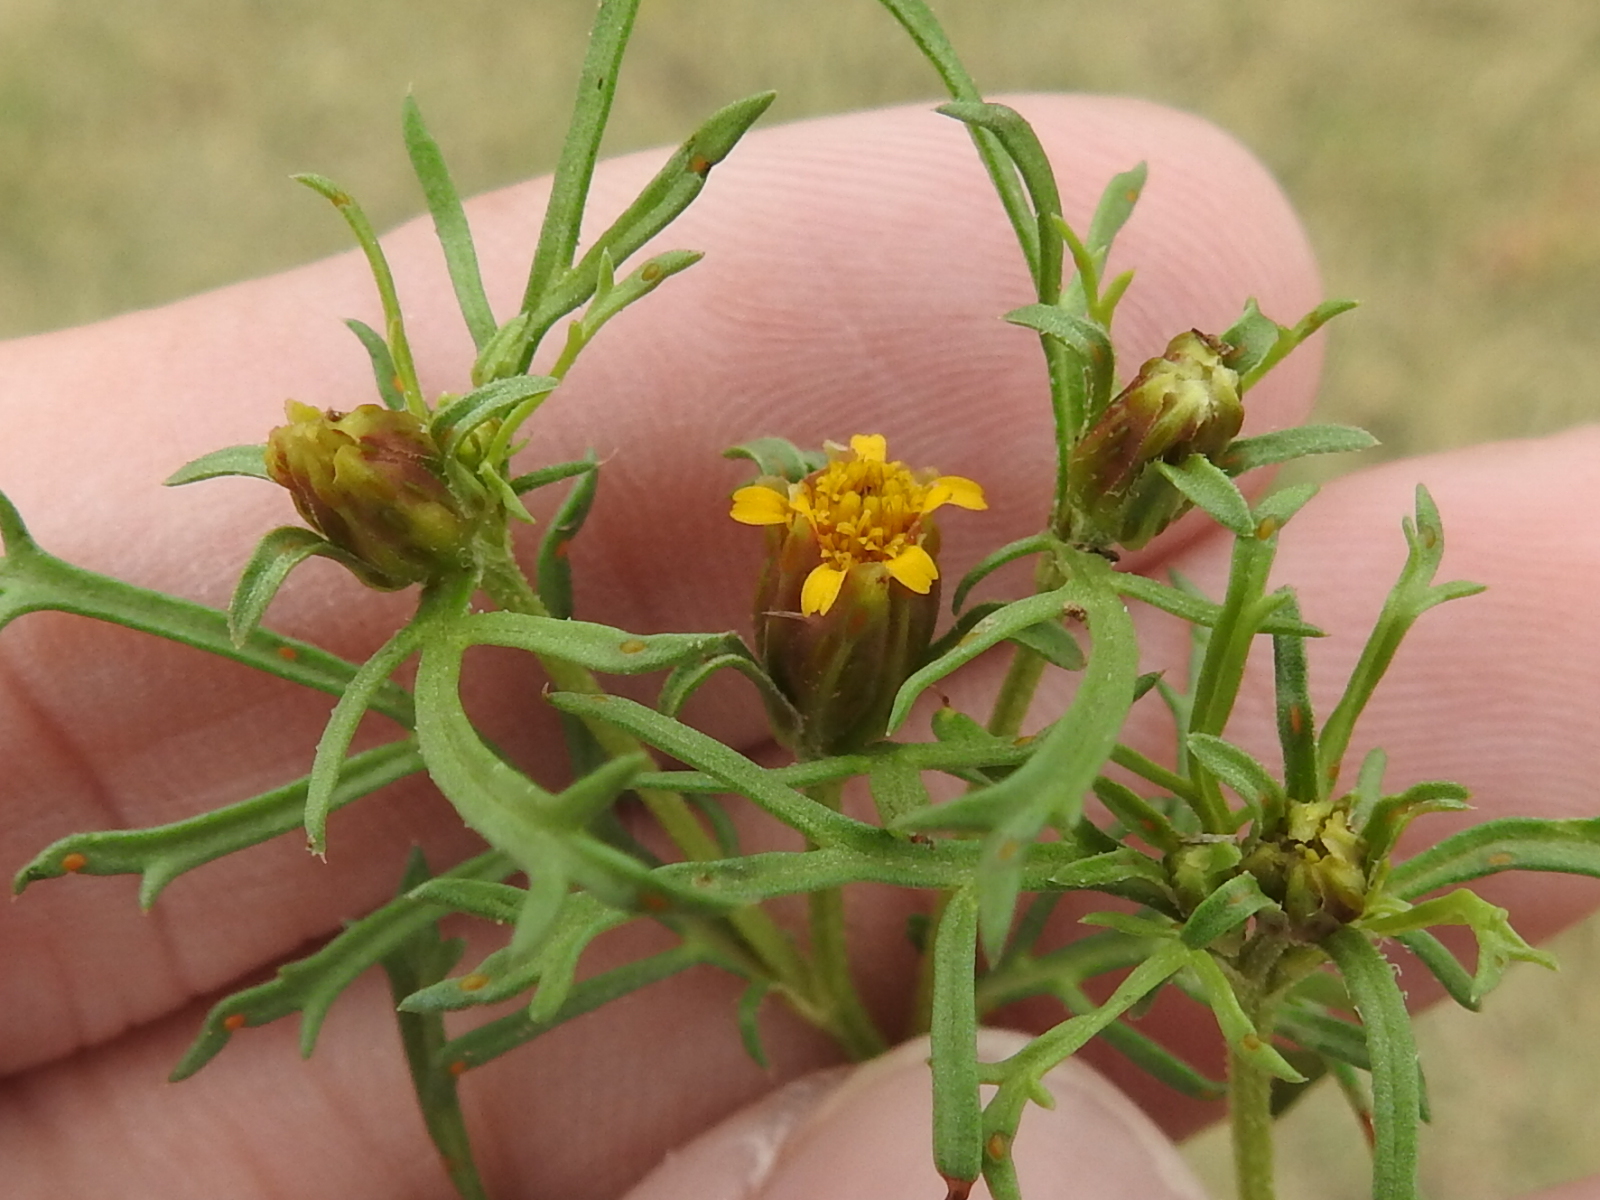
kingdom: Plantae
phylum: Tracheophyta
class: Magnoliopsida
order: Asterales
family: Asteraceae
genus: Dyssodia
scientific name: Dyssodia papposa
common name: Dogweed
